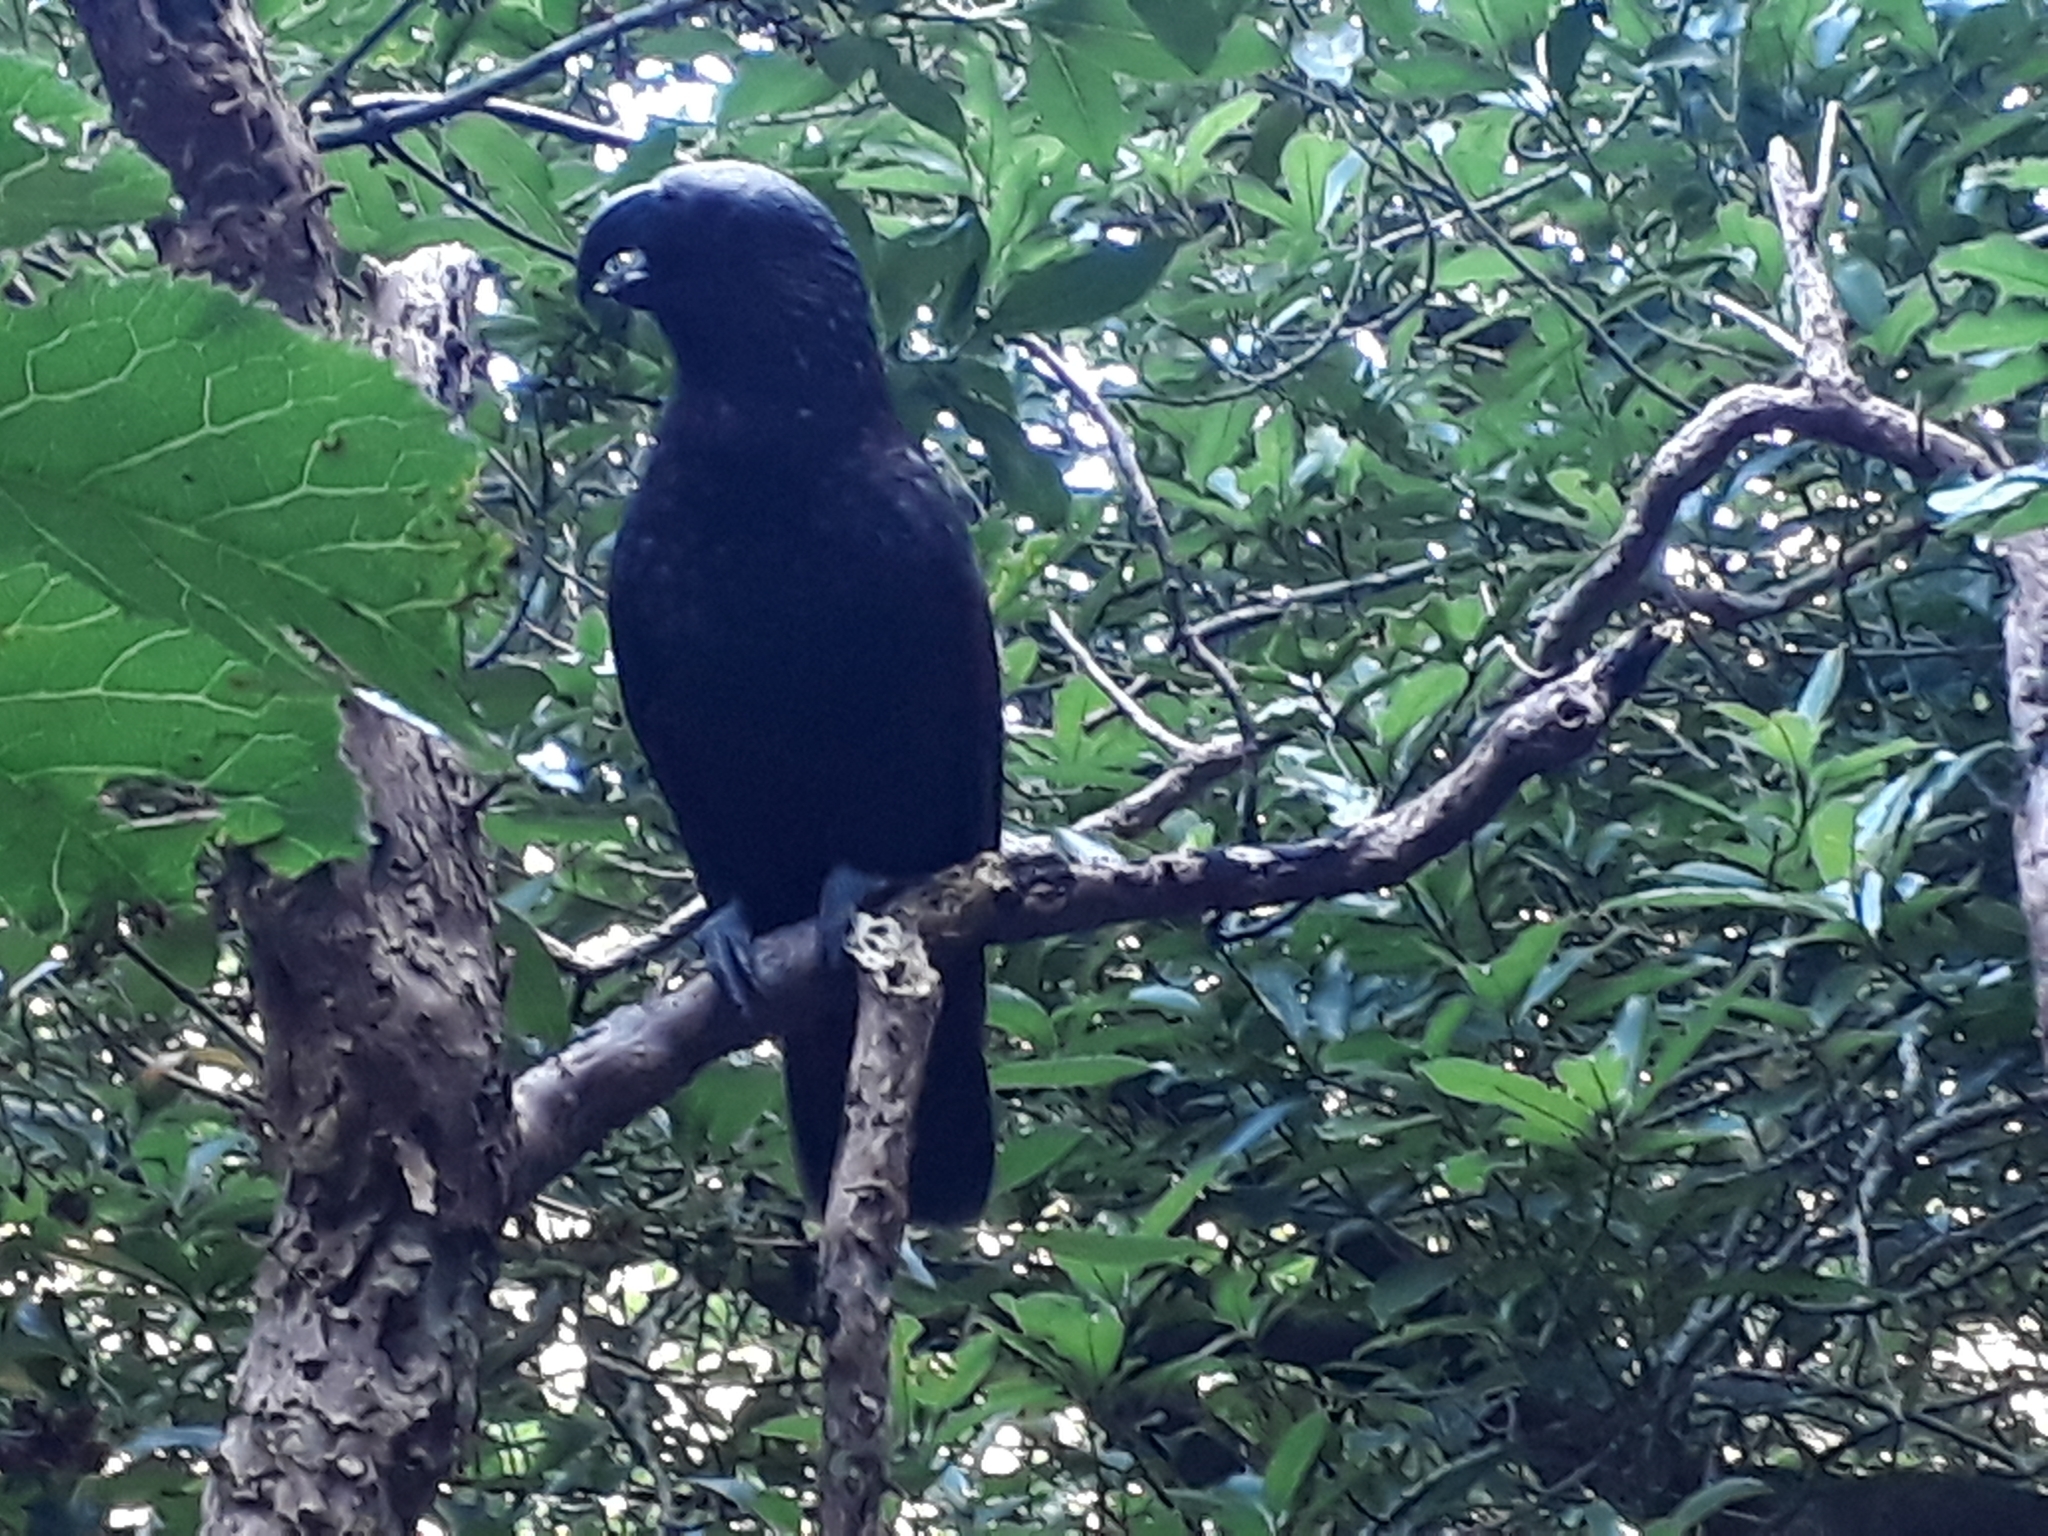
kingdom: Animalia
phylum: Chordata
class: Aves
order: Psittaciformes
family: Psittacidae
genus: Nestor
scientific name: Nestor meridionalis
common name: New zealand kaka
